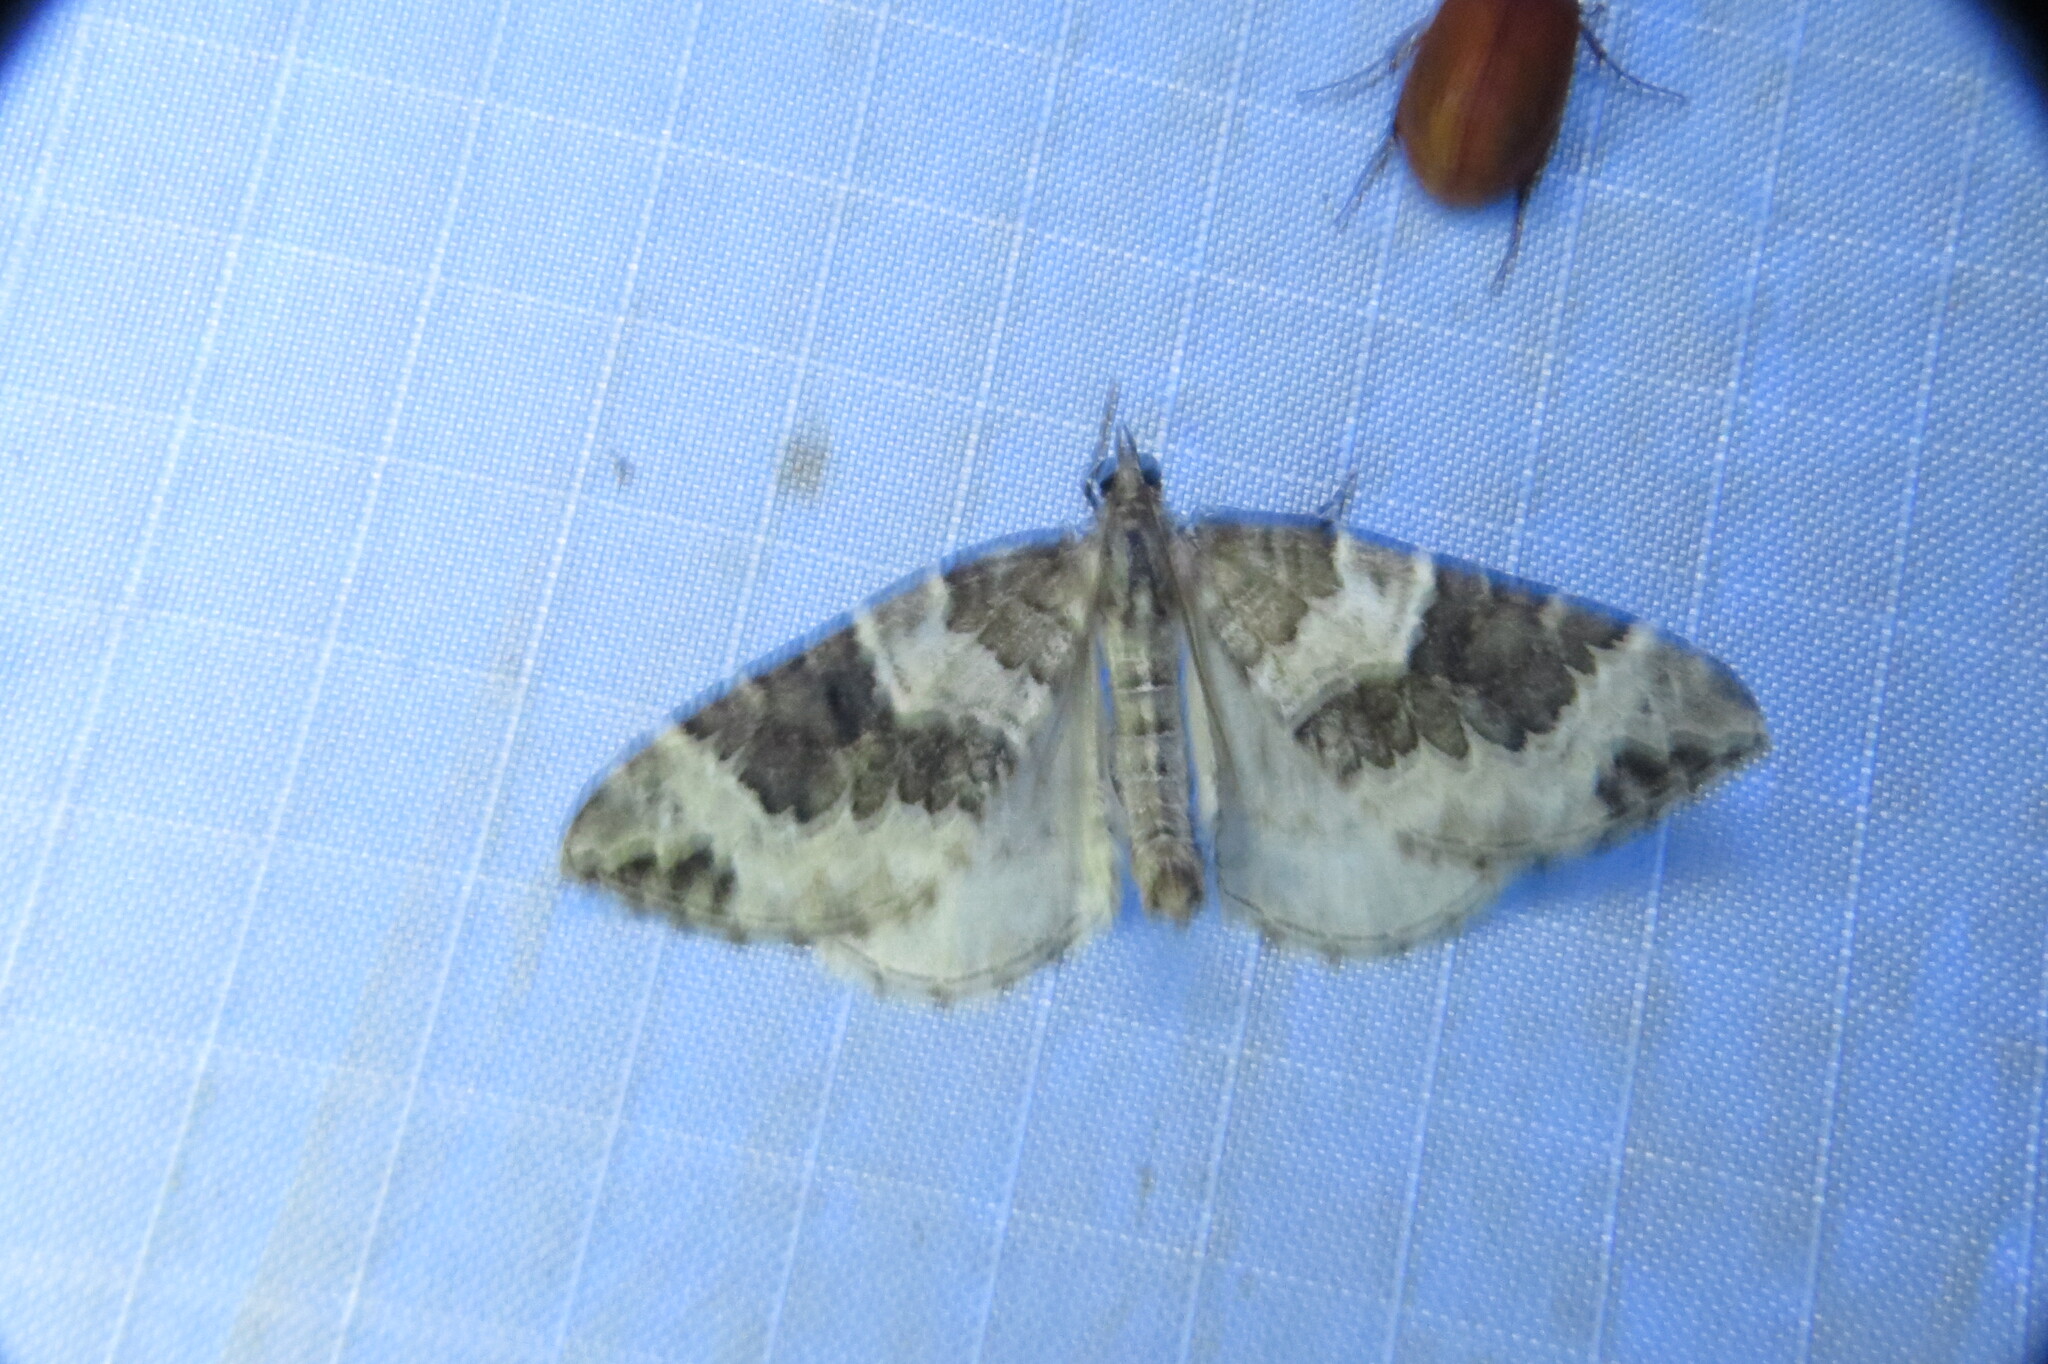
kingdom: Animalia
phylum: Arthropoda
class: Insecta
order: Lepidoptera
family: Geometridae
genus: Eulithis
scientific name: Eulithis explanata
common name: White eulithis
